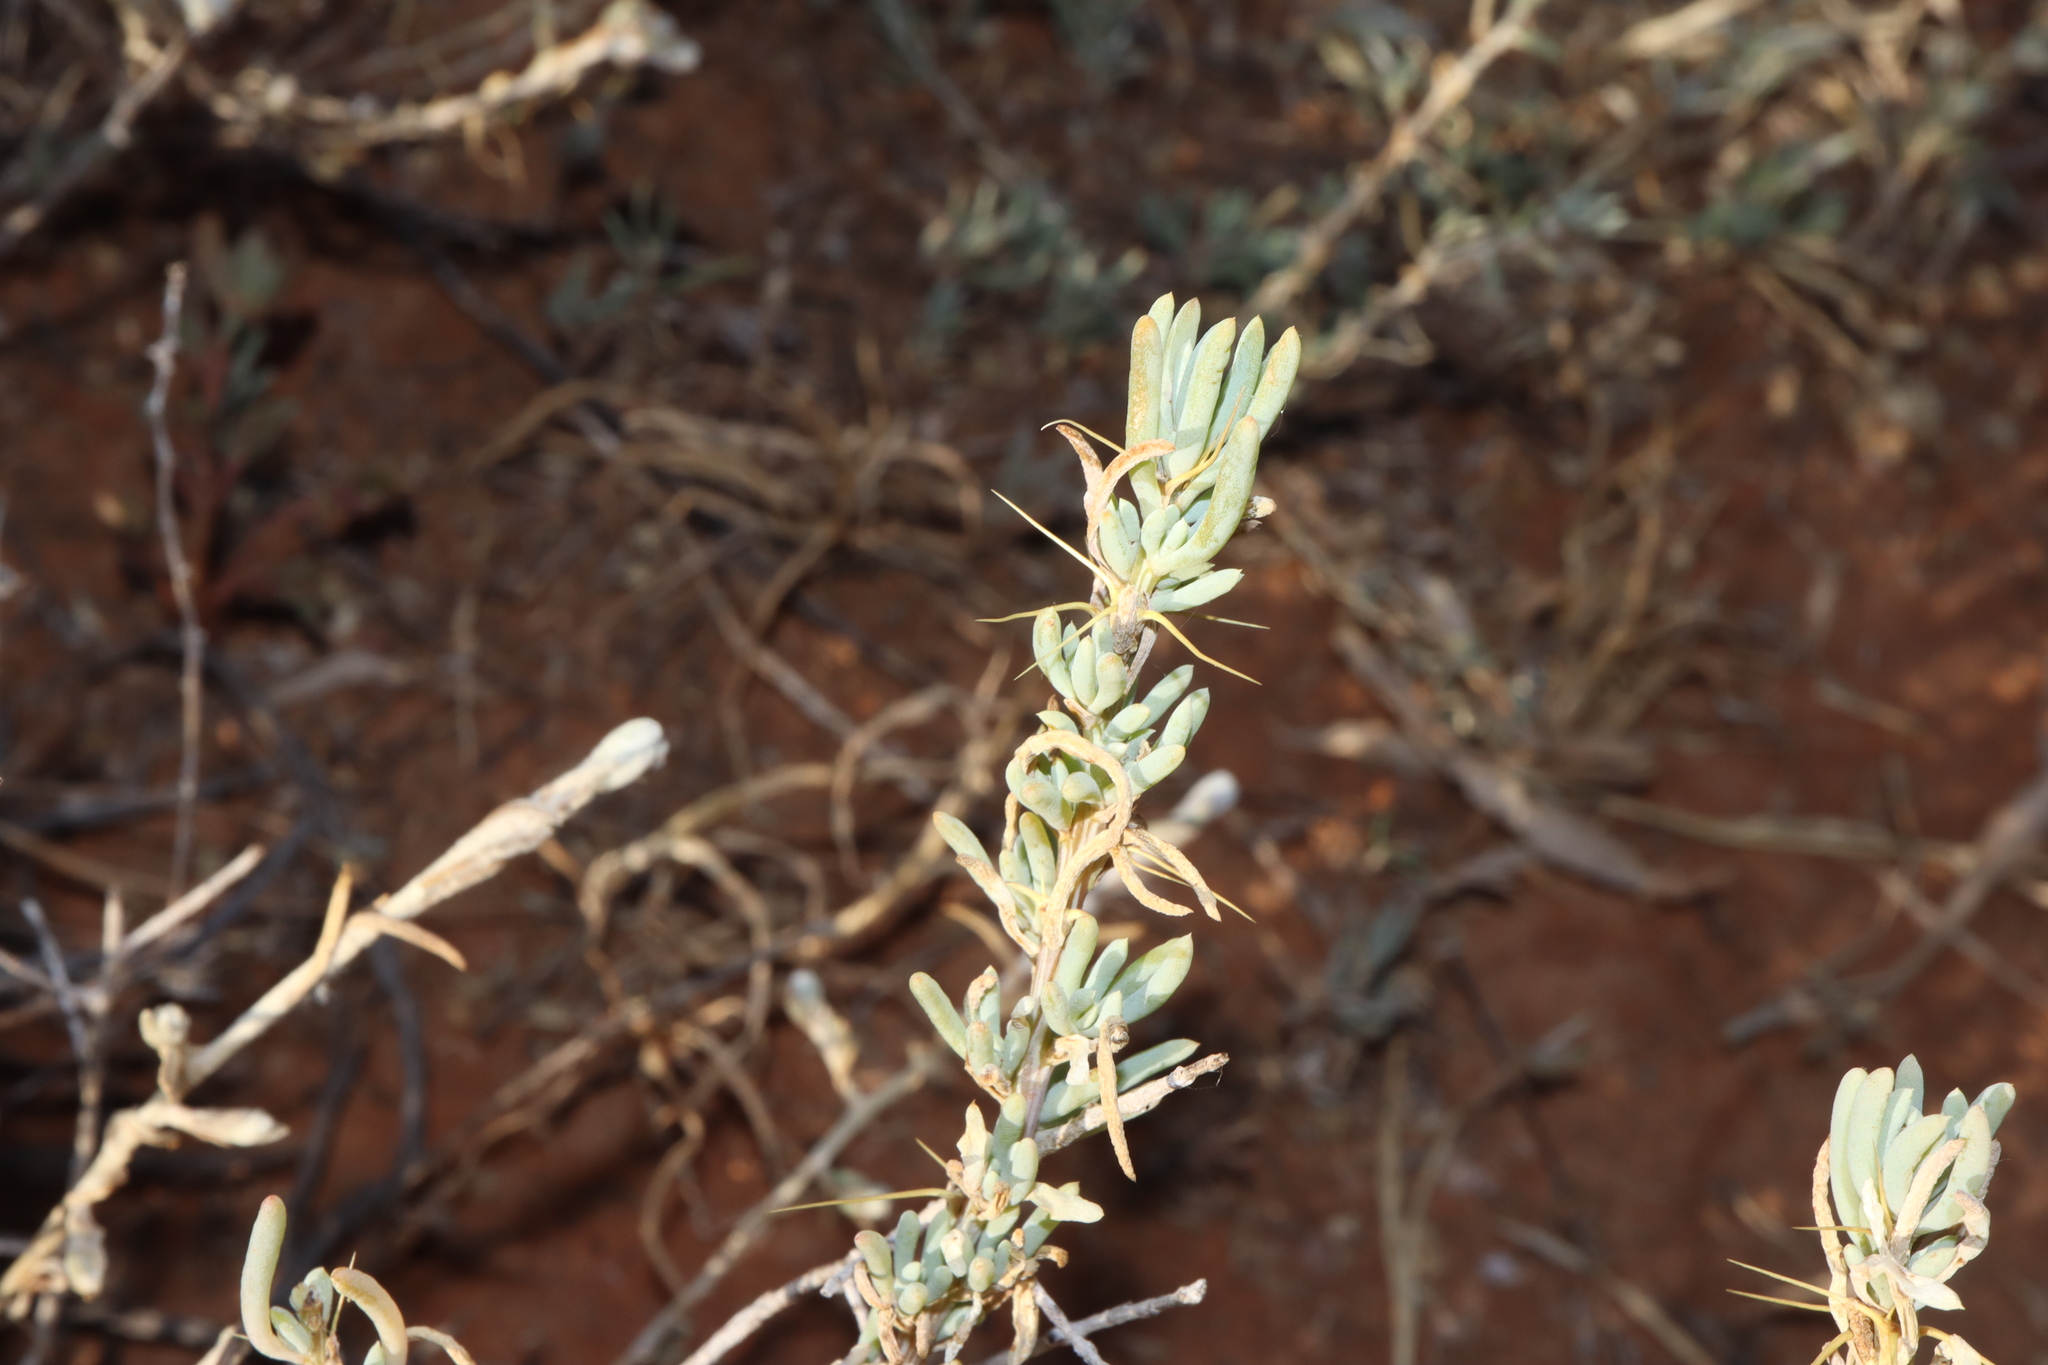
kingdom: Plantae
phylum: Tracheophyta
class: Magnoliopsida
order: Caryophyllales
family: Amaranthaceae
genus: Sclerolaena
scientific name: Sclerolaena divaricata
